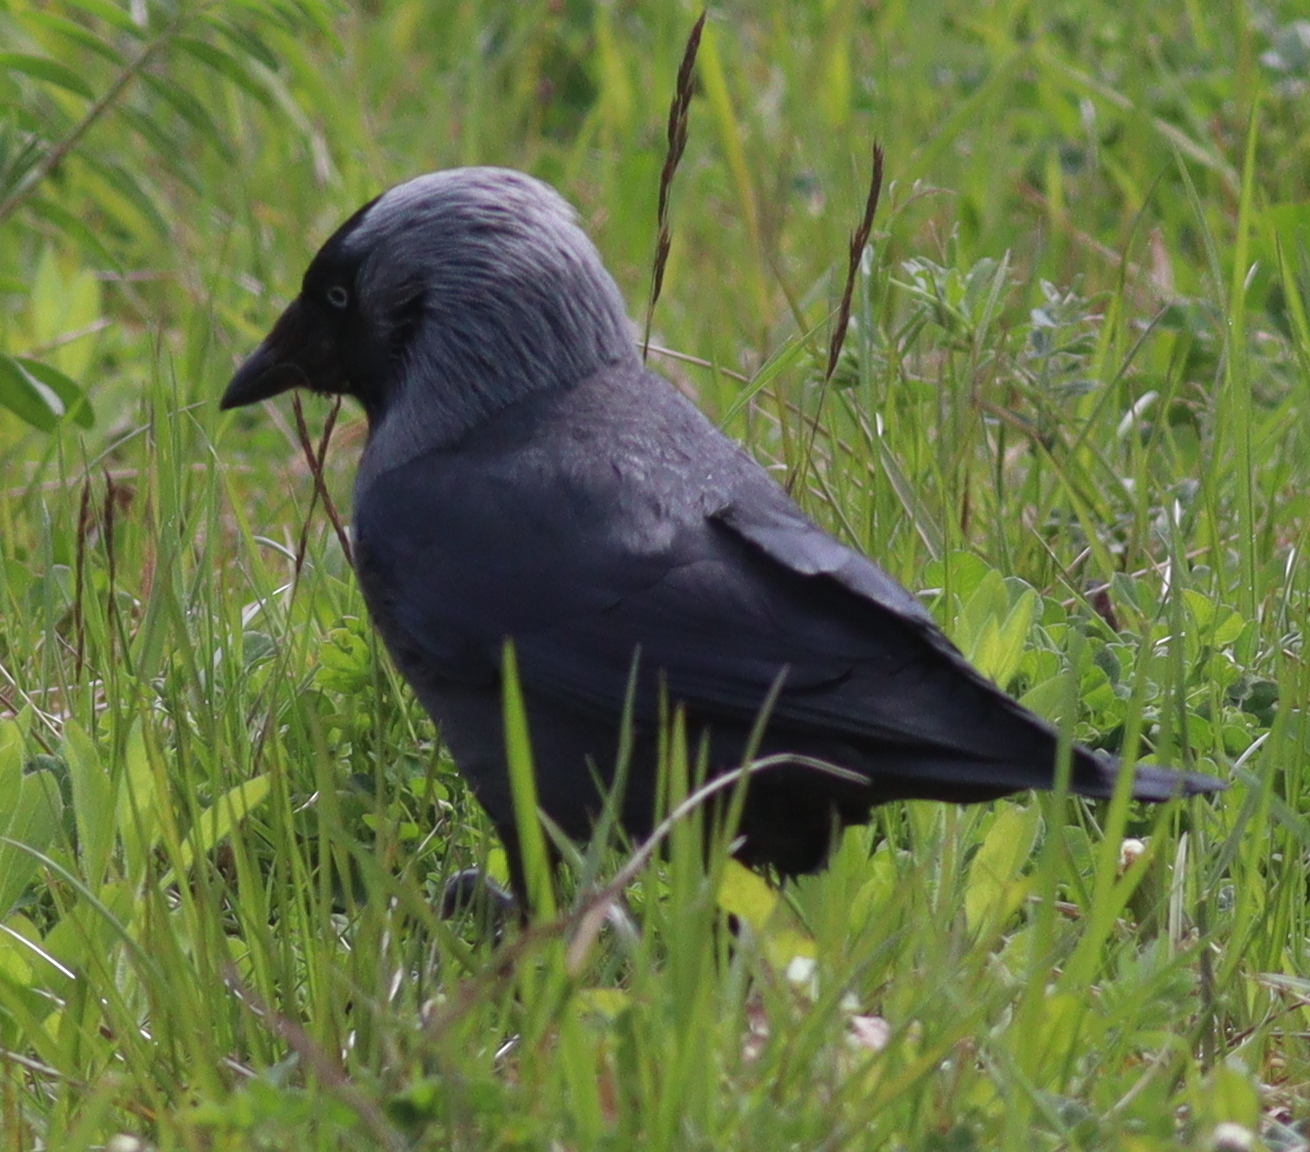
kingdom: Animalia
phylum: Chordata
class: Aves
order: Passeriformes
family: Corvidae
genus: Coloeus
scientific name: Coloeus monedula
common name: Western jackdaw
